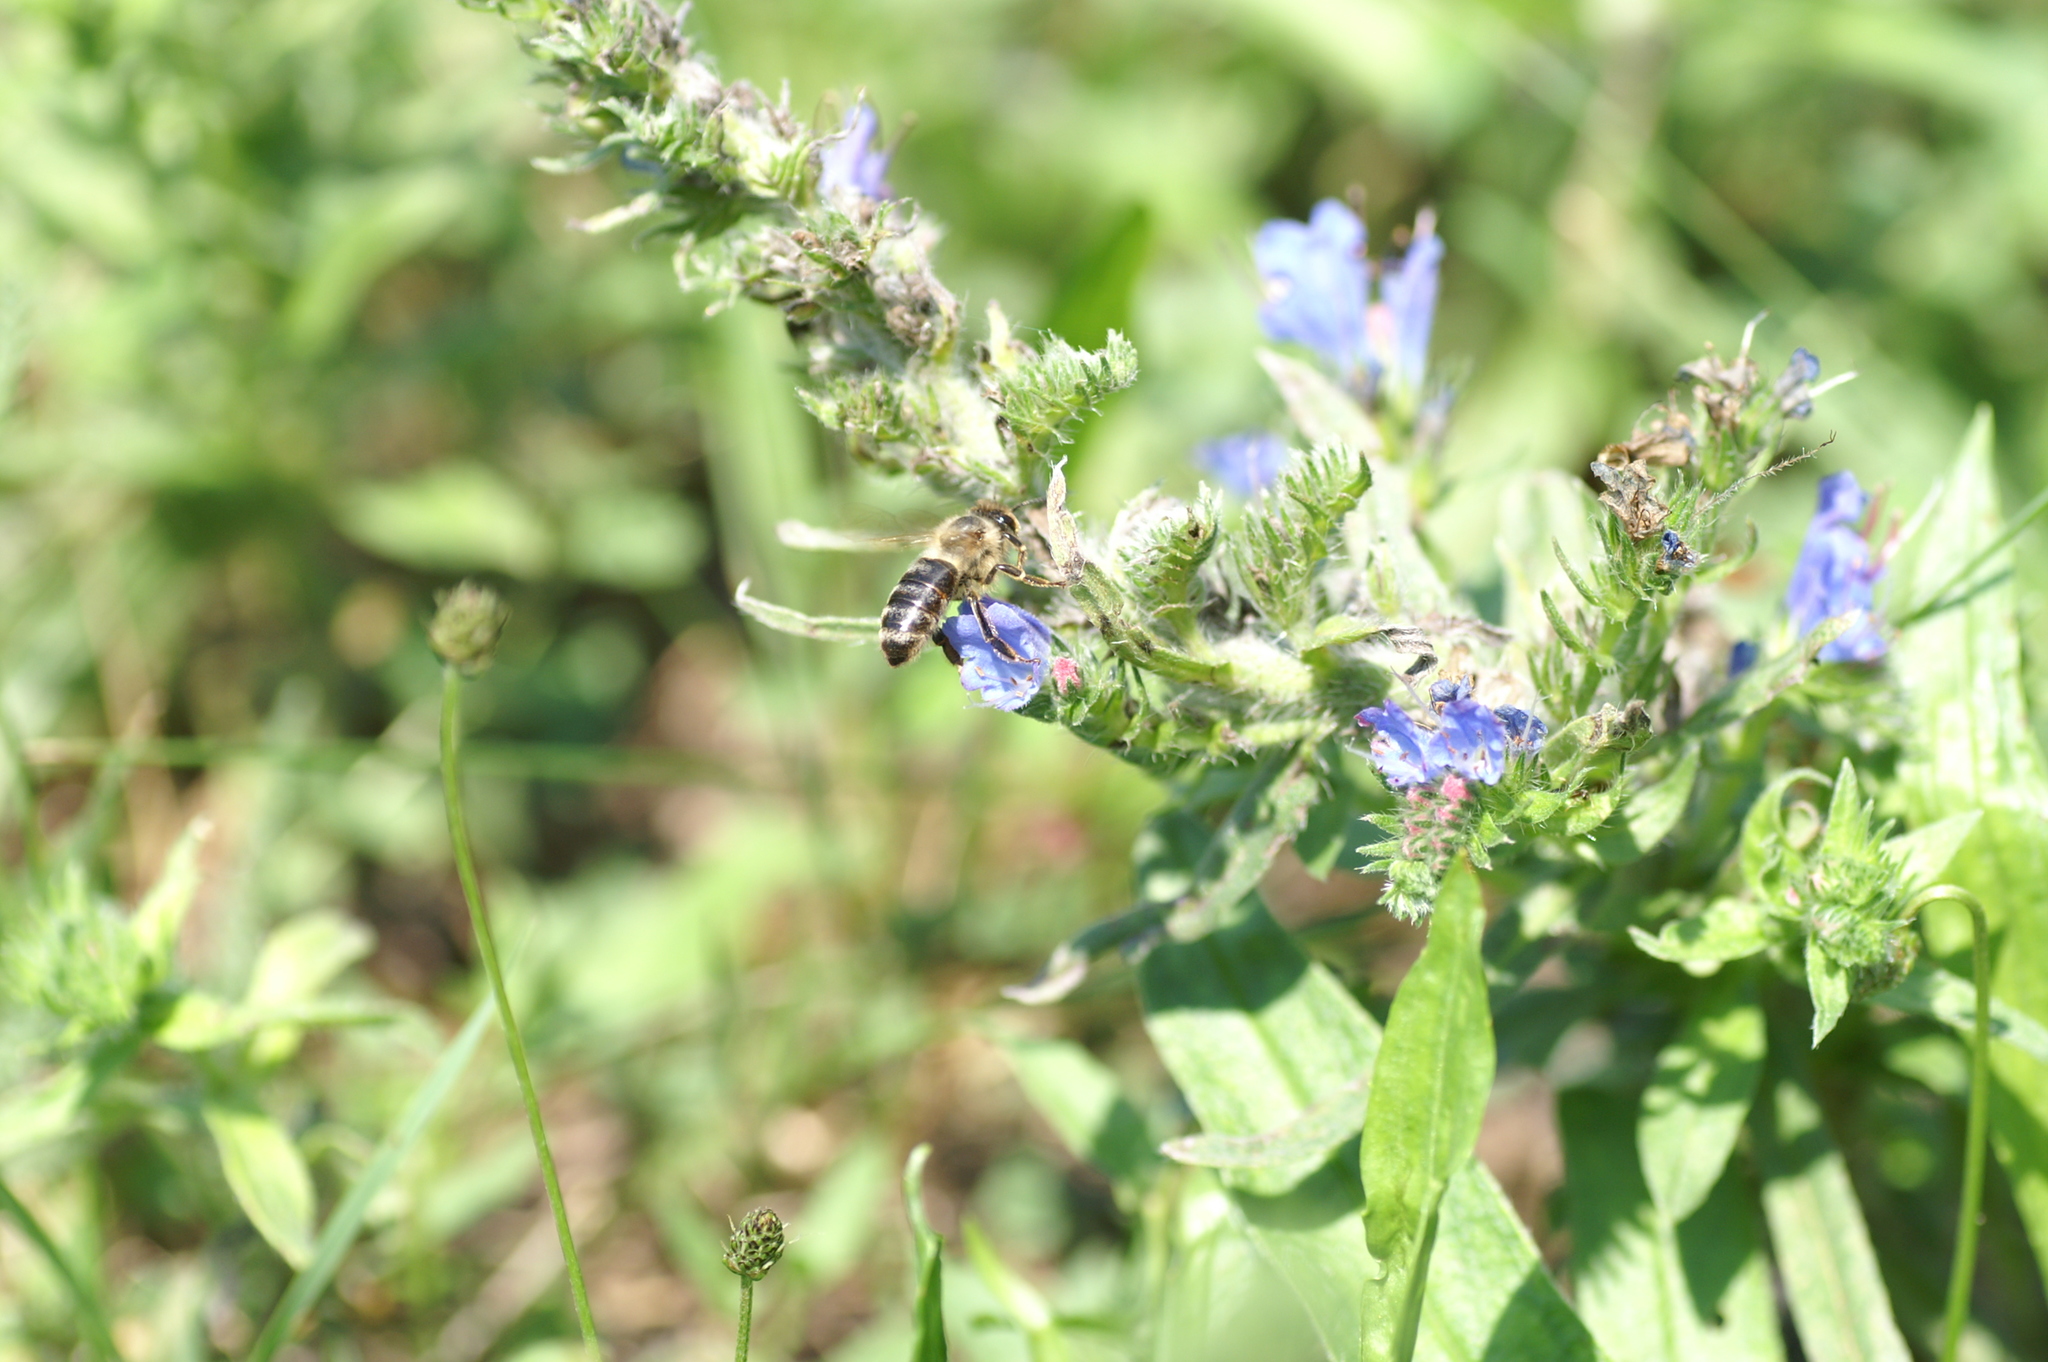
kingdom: Animalia
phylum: Arthropoda
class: Insecta
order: Hymenoptera
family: Apidae
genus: Apis
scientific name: Apis mellifera
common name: Honey bee
